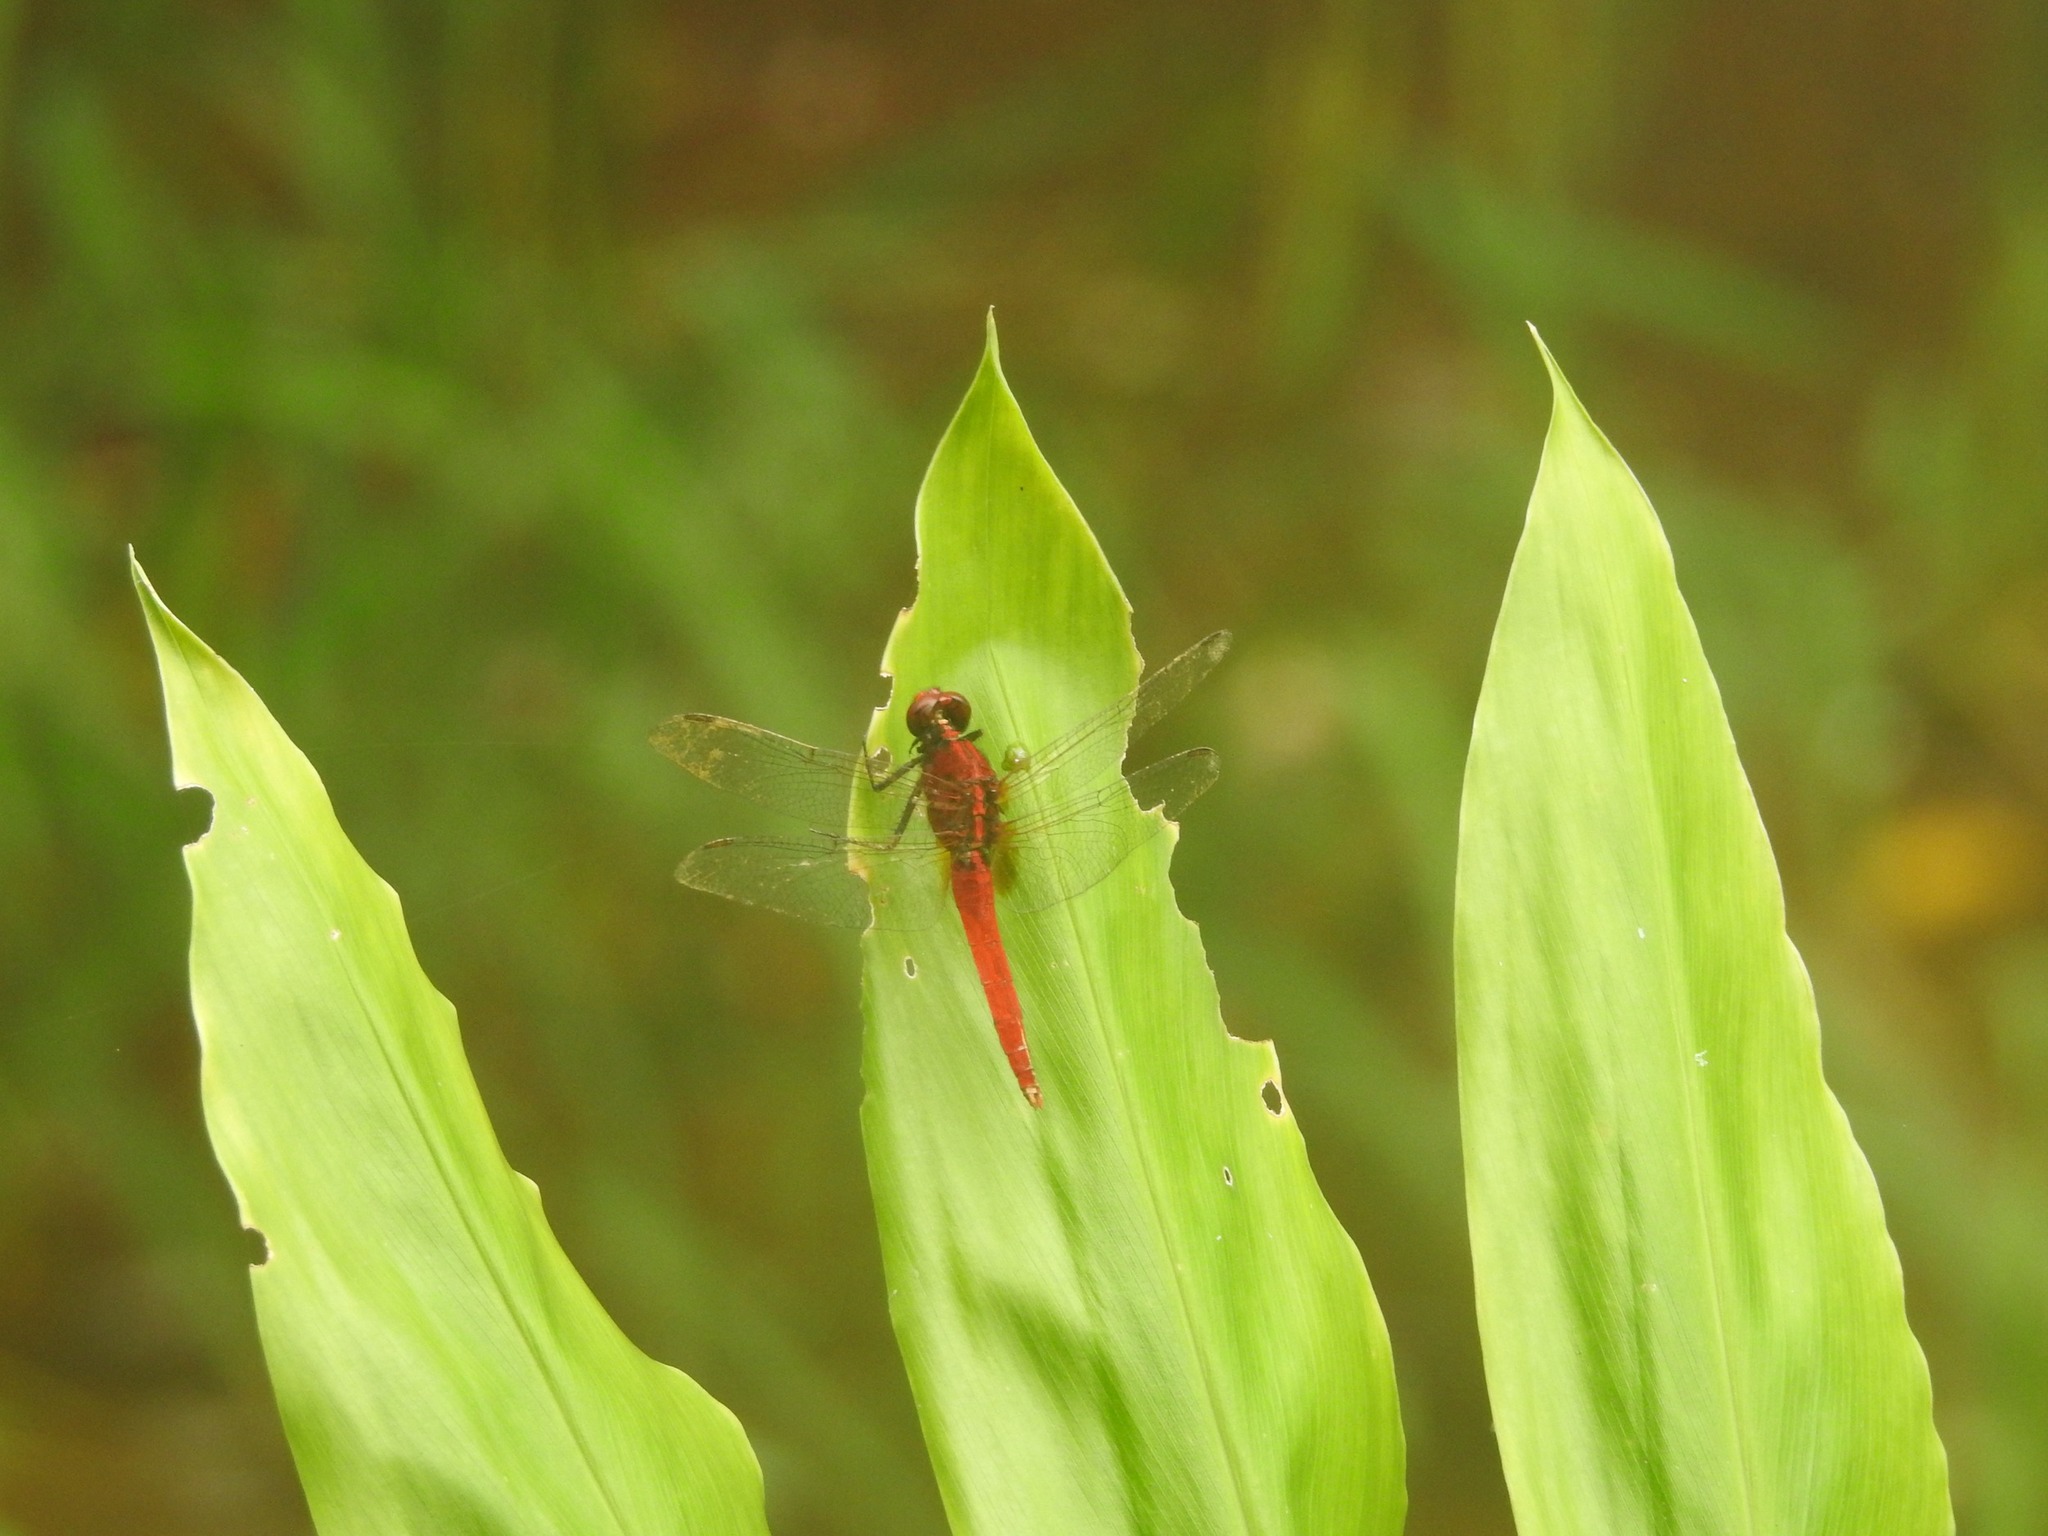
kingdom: Animalia
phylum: Arthropoda
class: Insecta
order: Odonata
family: Libellulidae
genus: Rhodothemis
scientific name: Rhodothemis rufa
